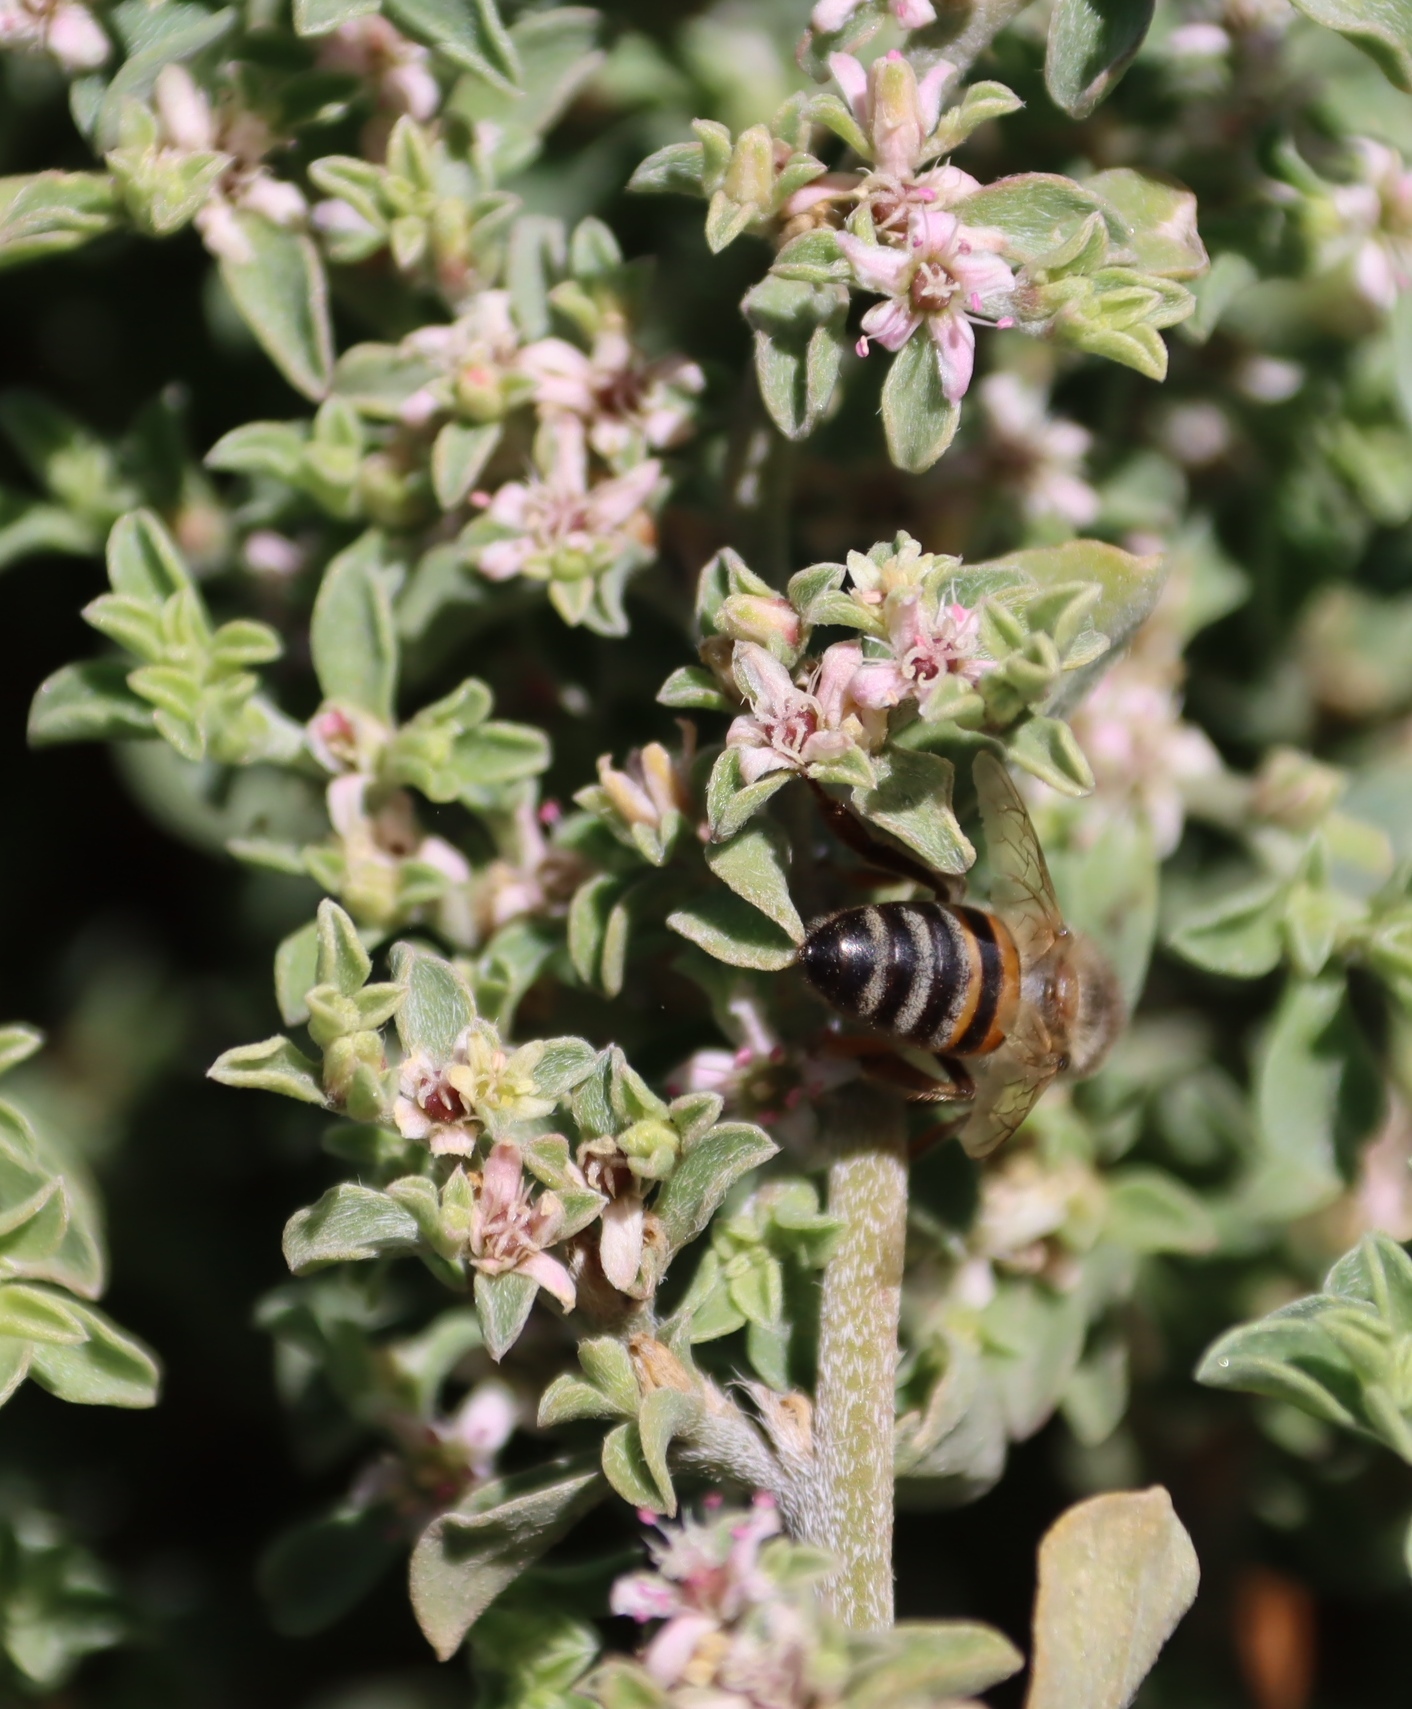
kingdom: Animalia
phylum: Arthropoda
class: Insecta
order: Hymenoptera
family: Apidae
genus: Apis
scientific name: Apis mellifera
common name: Honey bee
